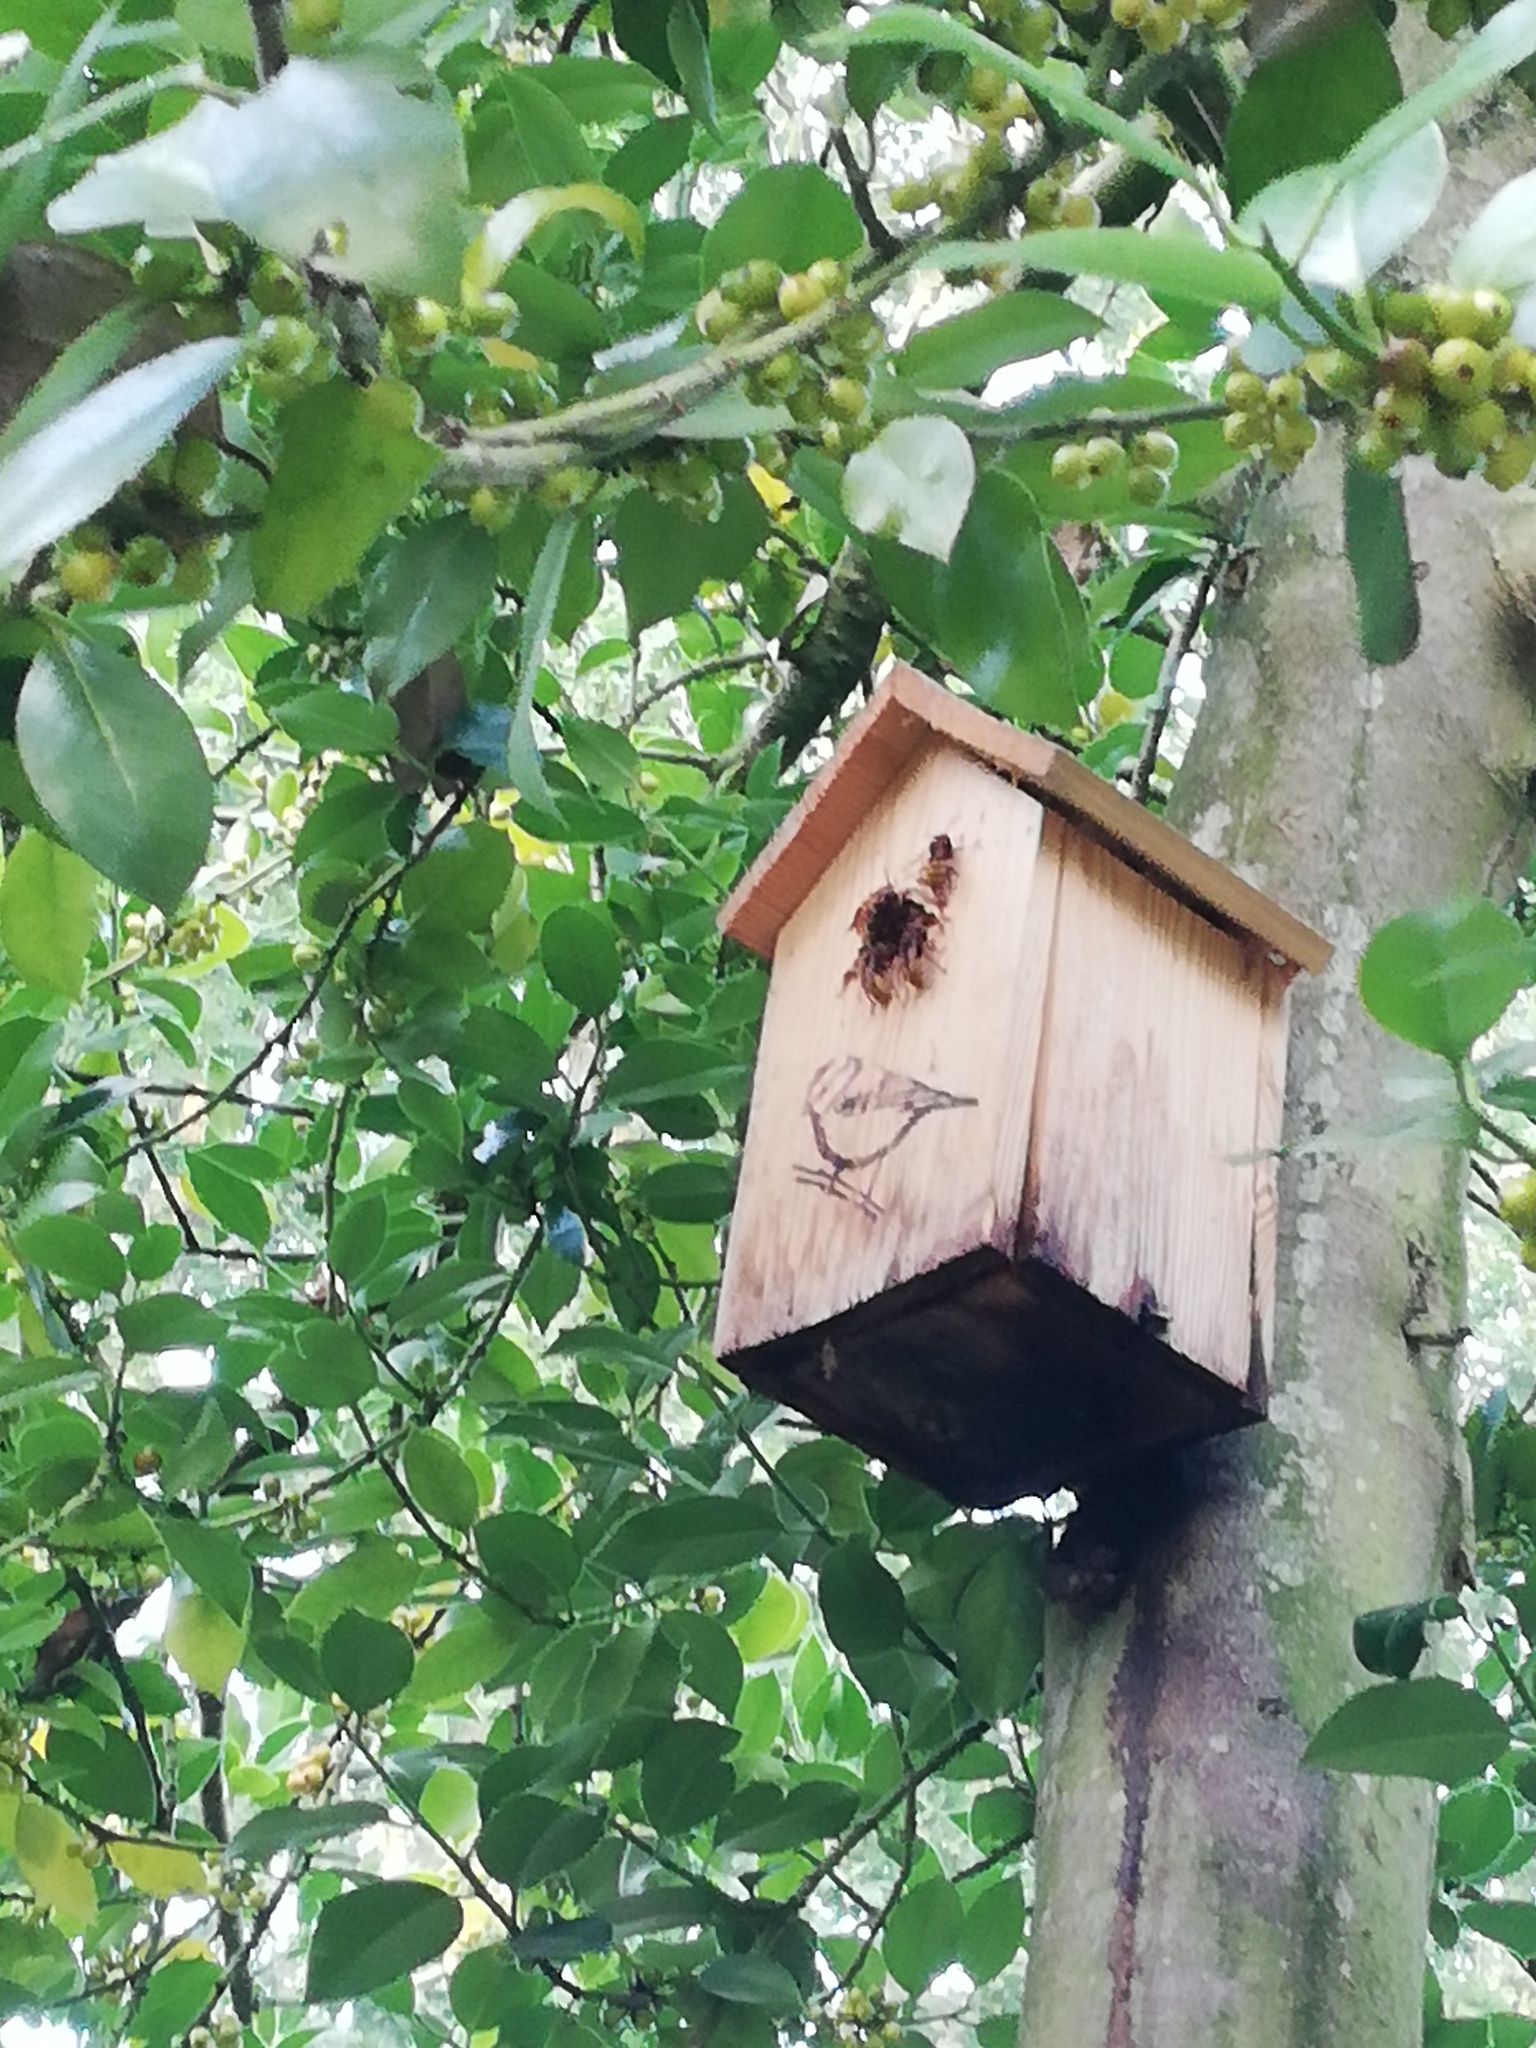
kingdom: Animalia
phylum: Arthropoda
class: Insecta
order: Hymenoptera
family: Vespidae
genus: Vespa
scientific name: Vespa crabro
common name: Hornet
